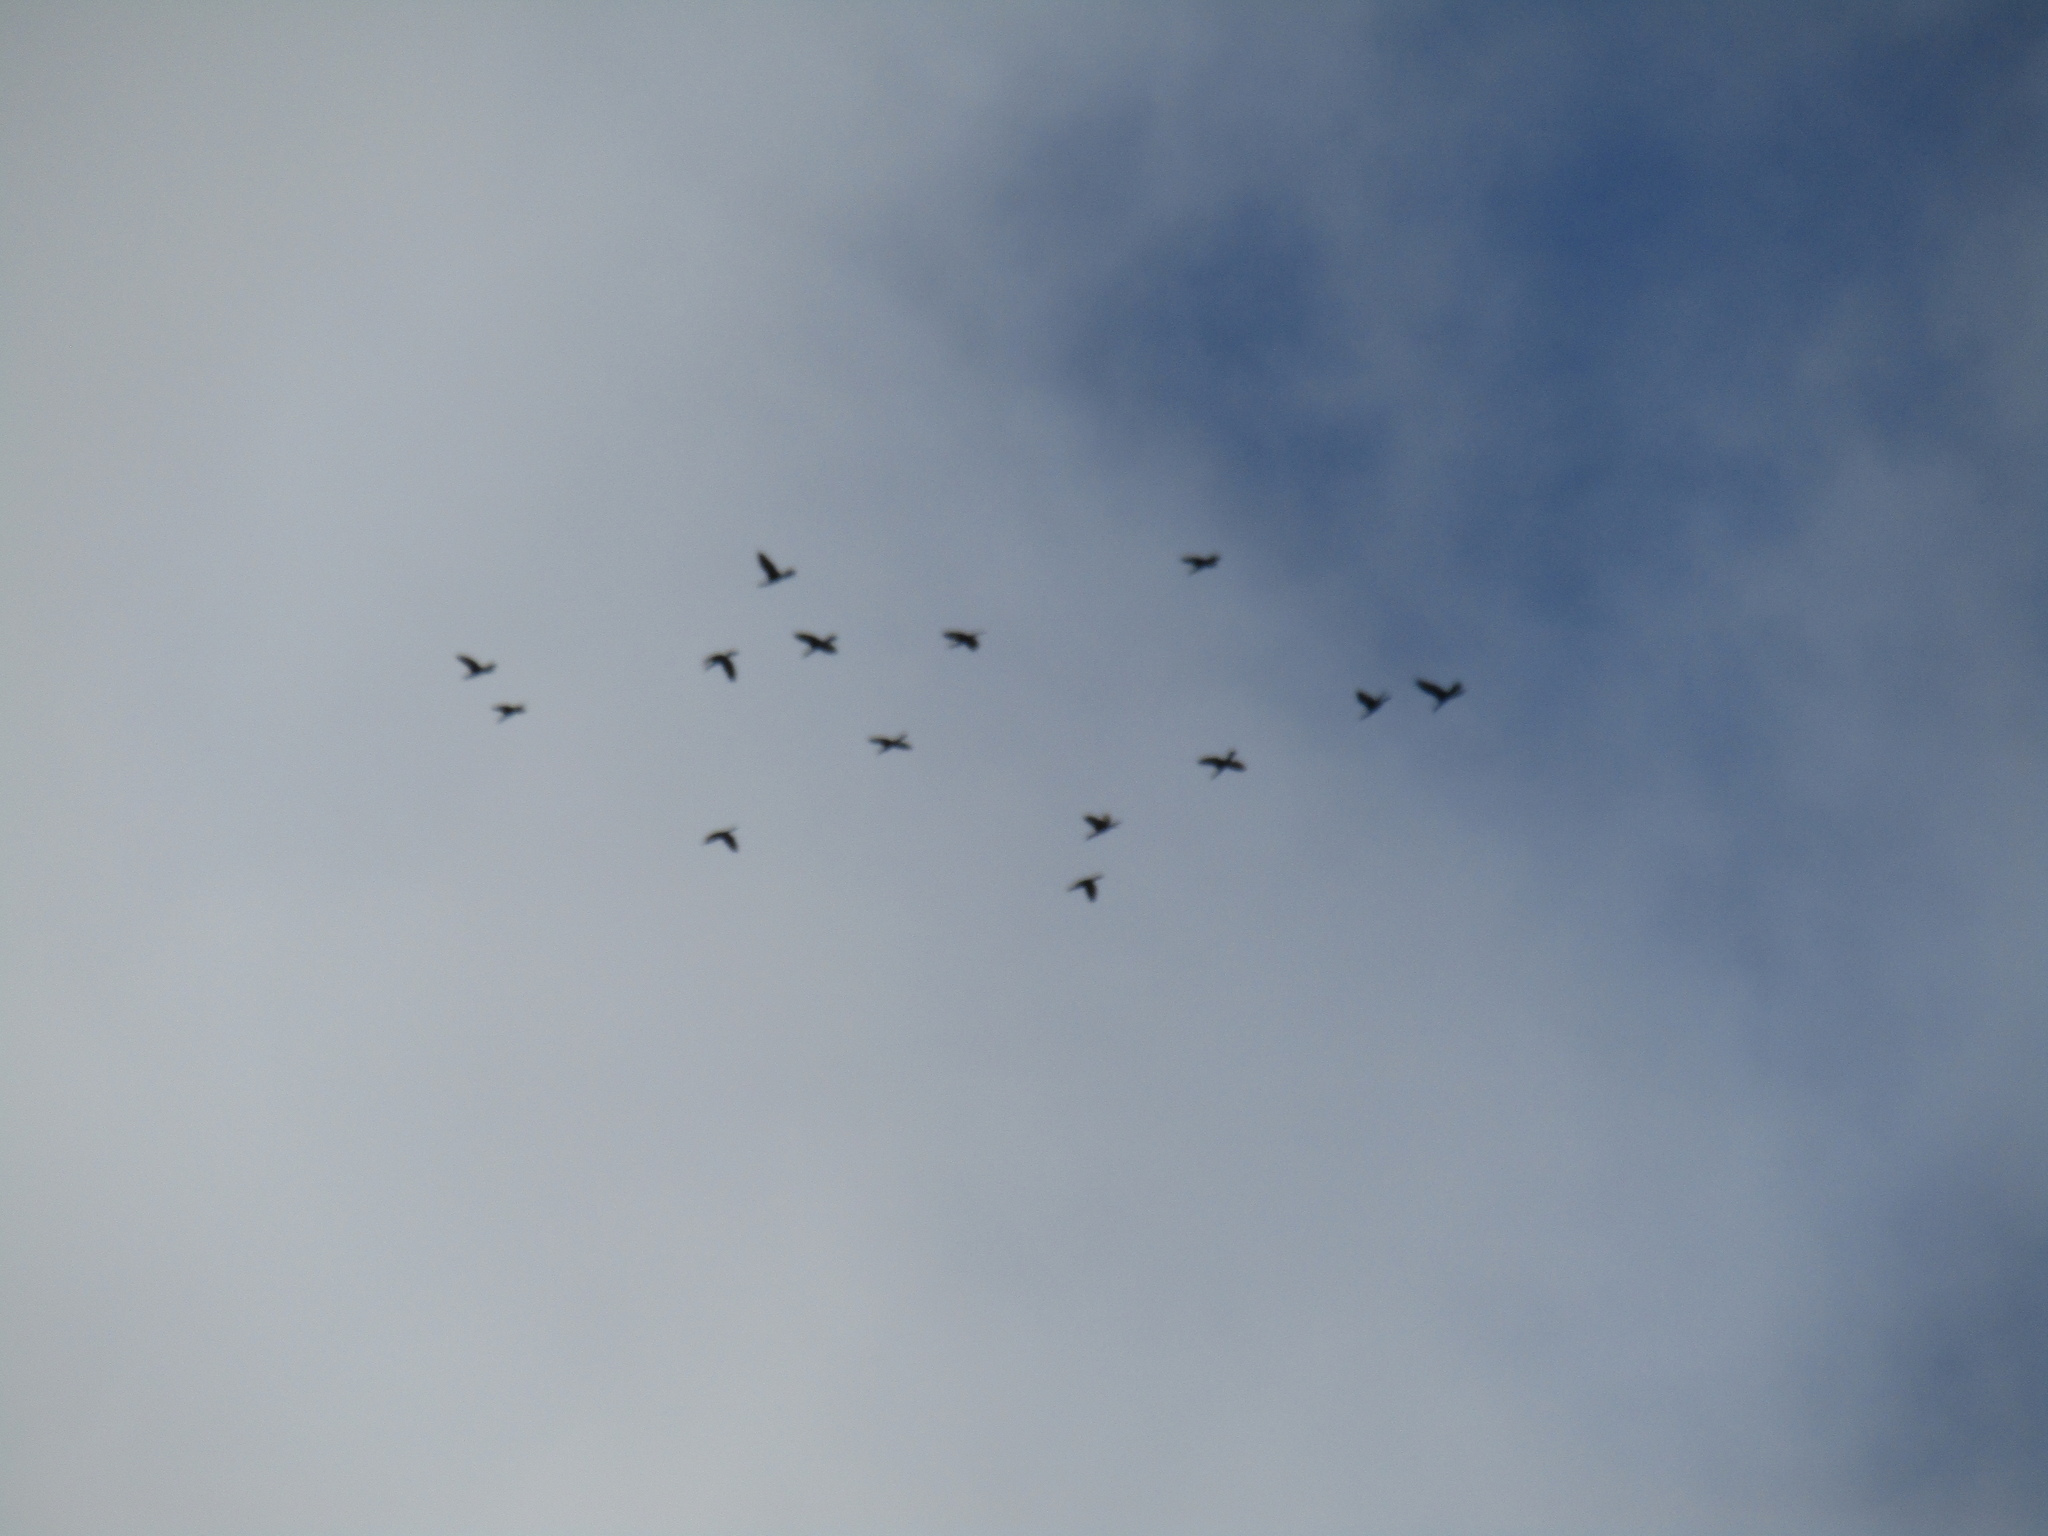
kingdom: Animalia
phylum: Chordata
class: Aves
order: Suliformes
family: Phalacrocoracidae
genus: Phalacrocorax
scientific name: Phalacrocorax brasilianus
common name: Neotropic cormorant
